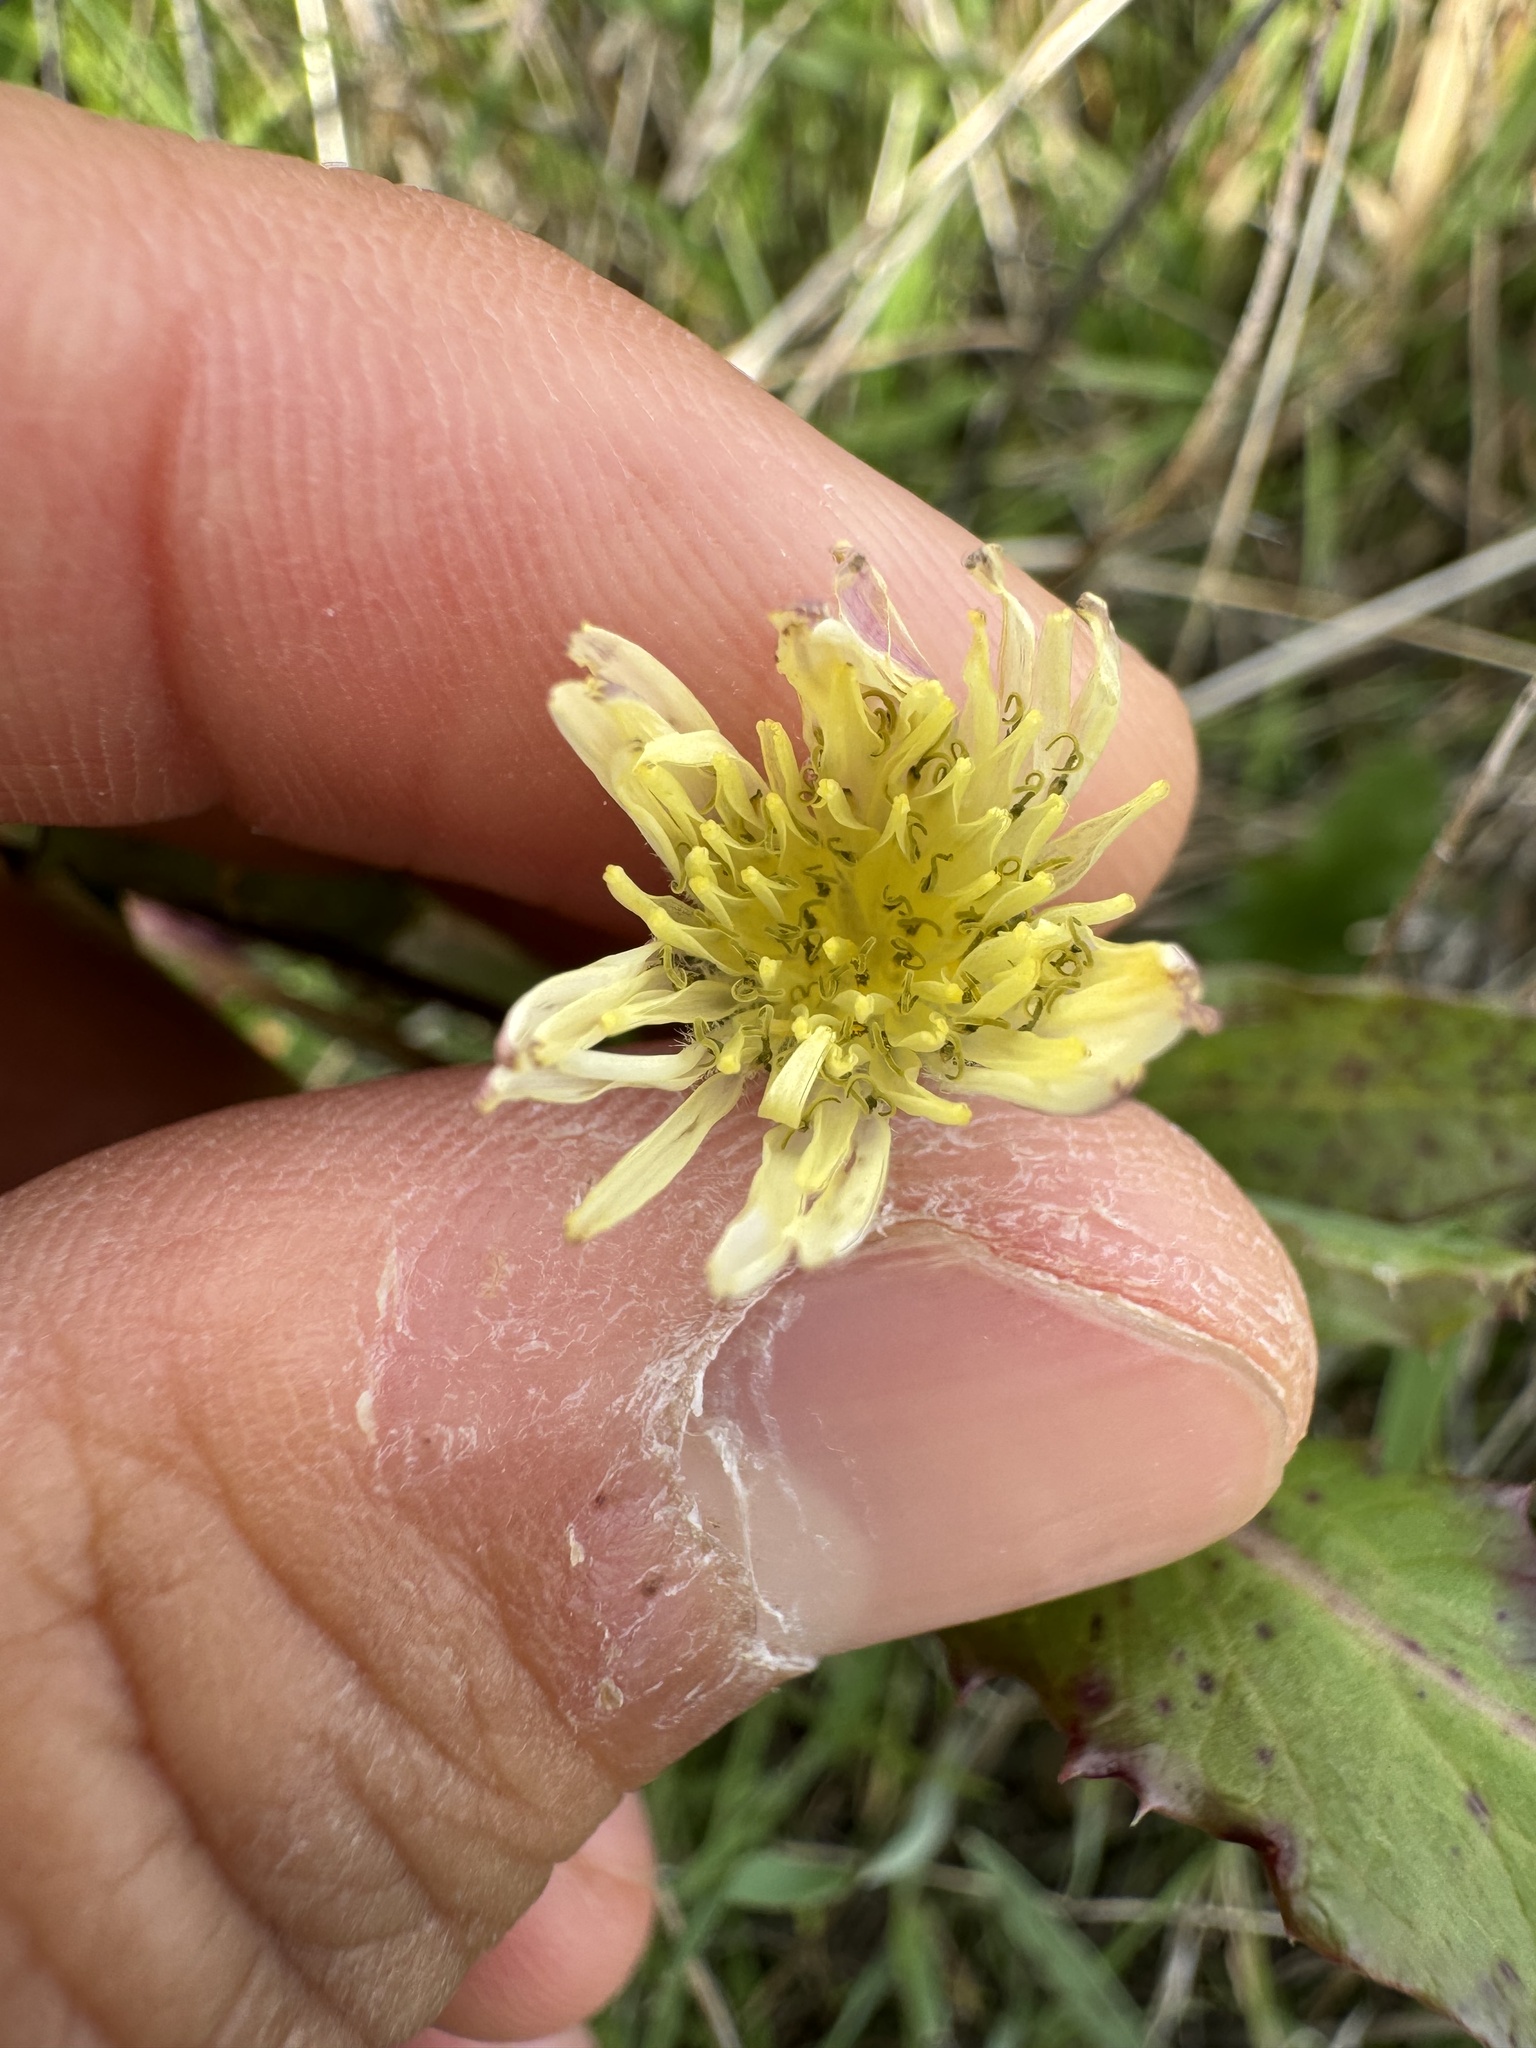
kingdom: Plantae
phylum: Tracheophyta
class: Magnoliopsida
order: Asterales
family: Asteraceae
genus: Sonchus
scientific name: Sonchus oleraceus
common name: Common sowthistle
